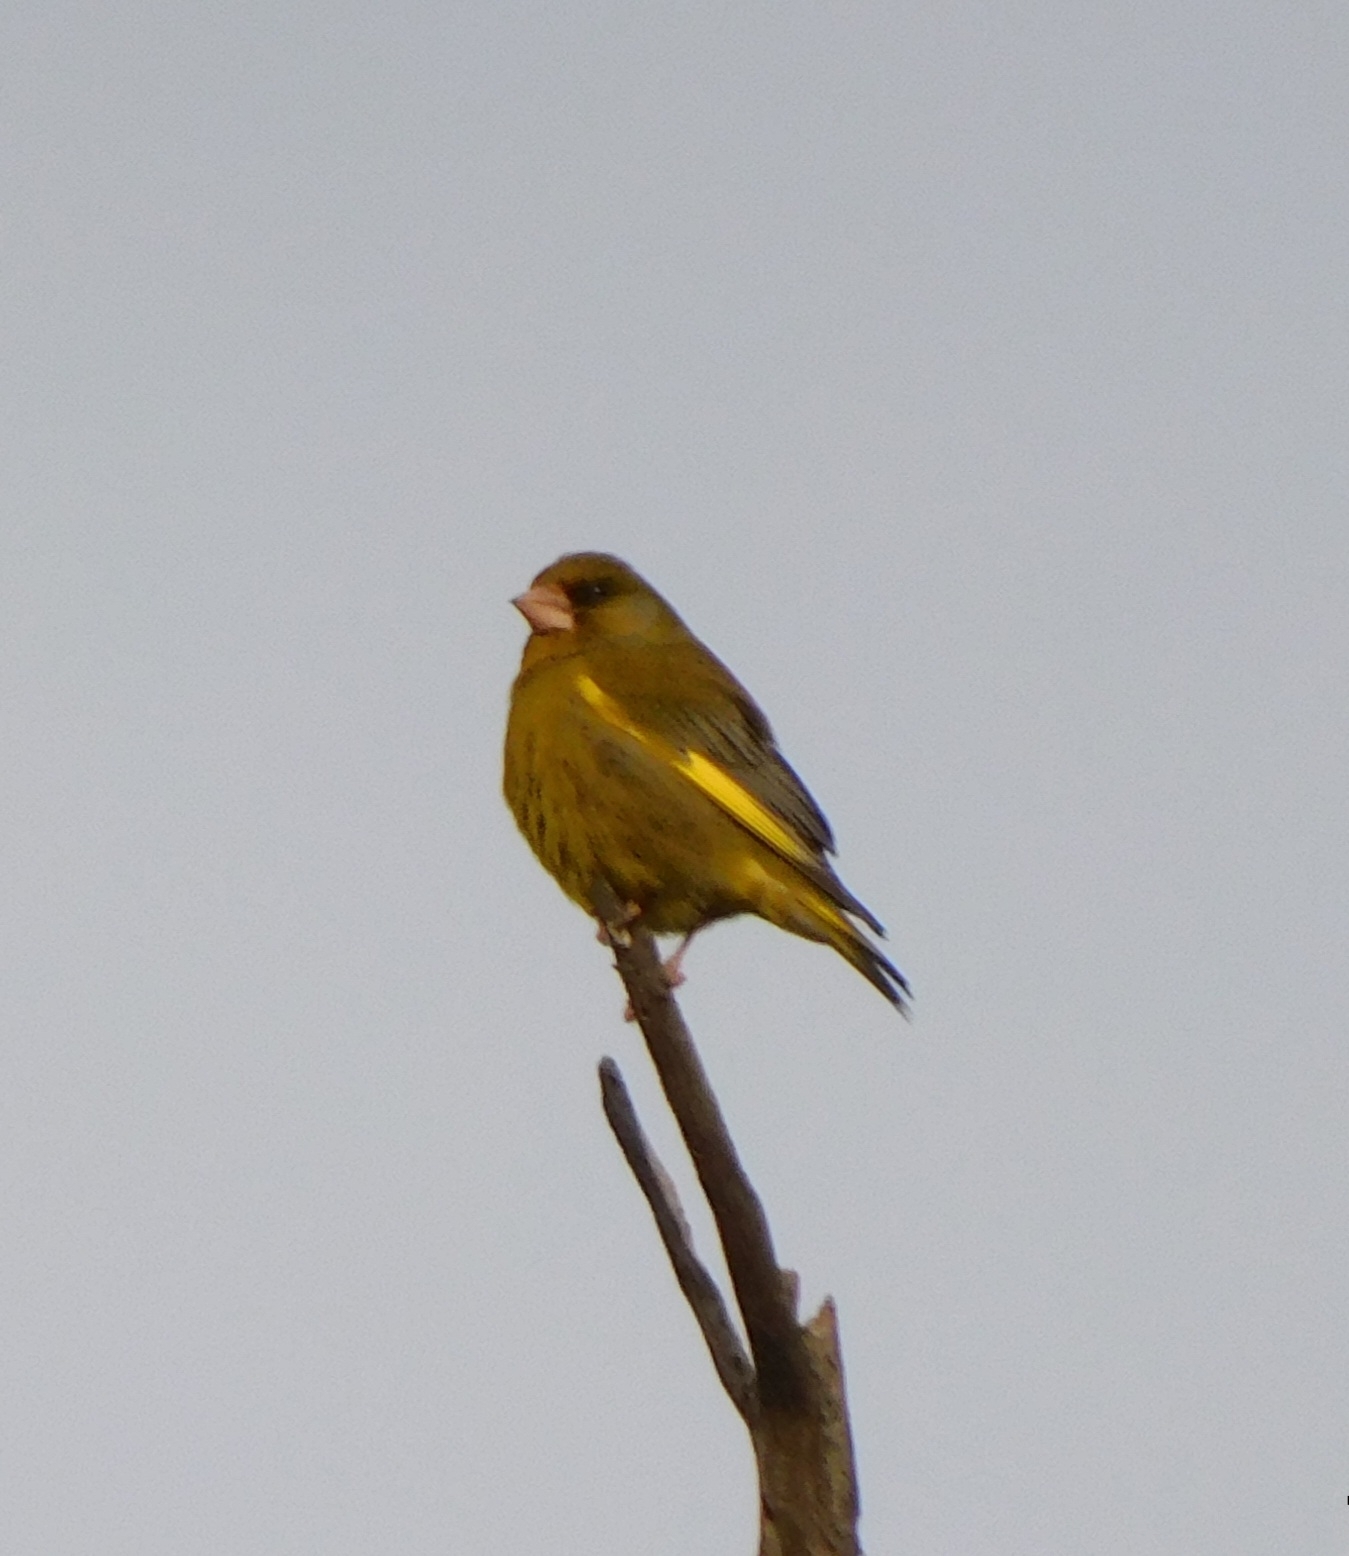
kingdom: Plantae
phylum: Tracheophyta
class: Liliopsida
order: Poales
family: Poaceae
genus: Chloris
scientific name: Chloris chloris
